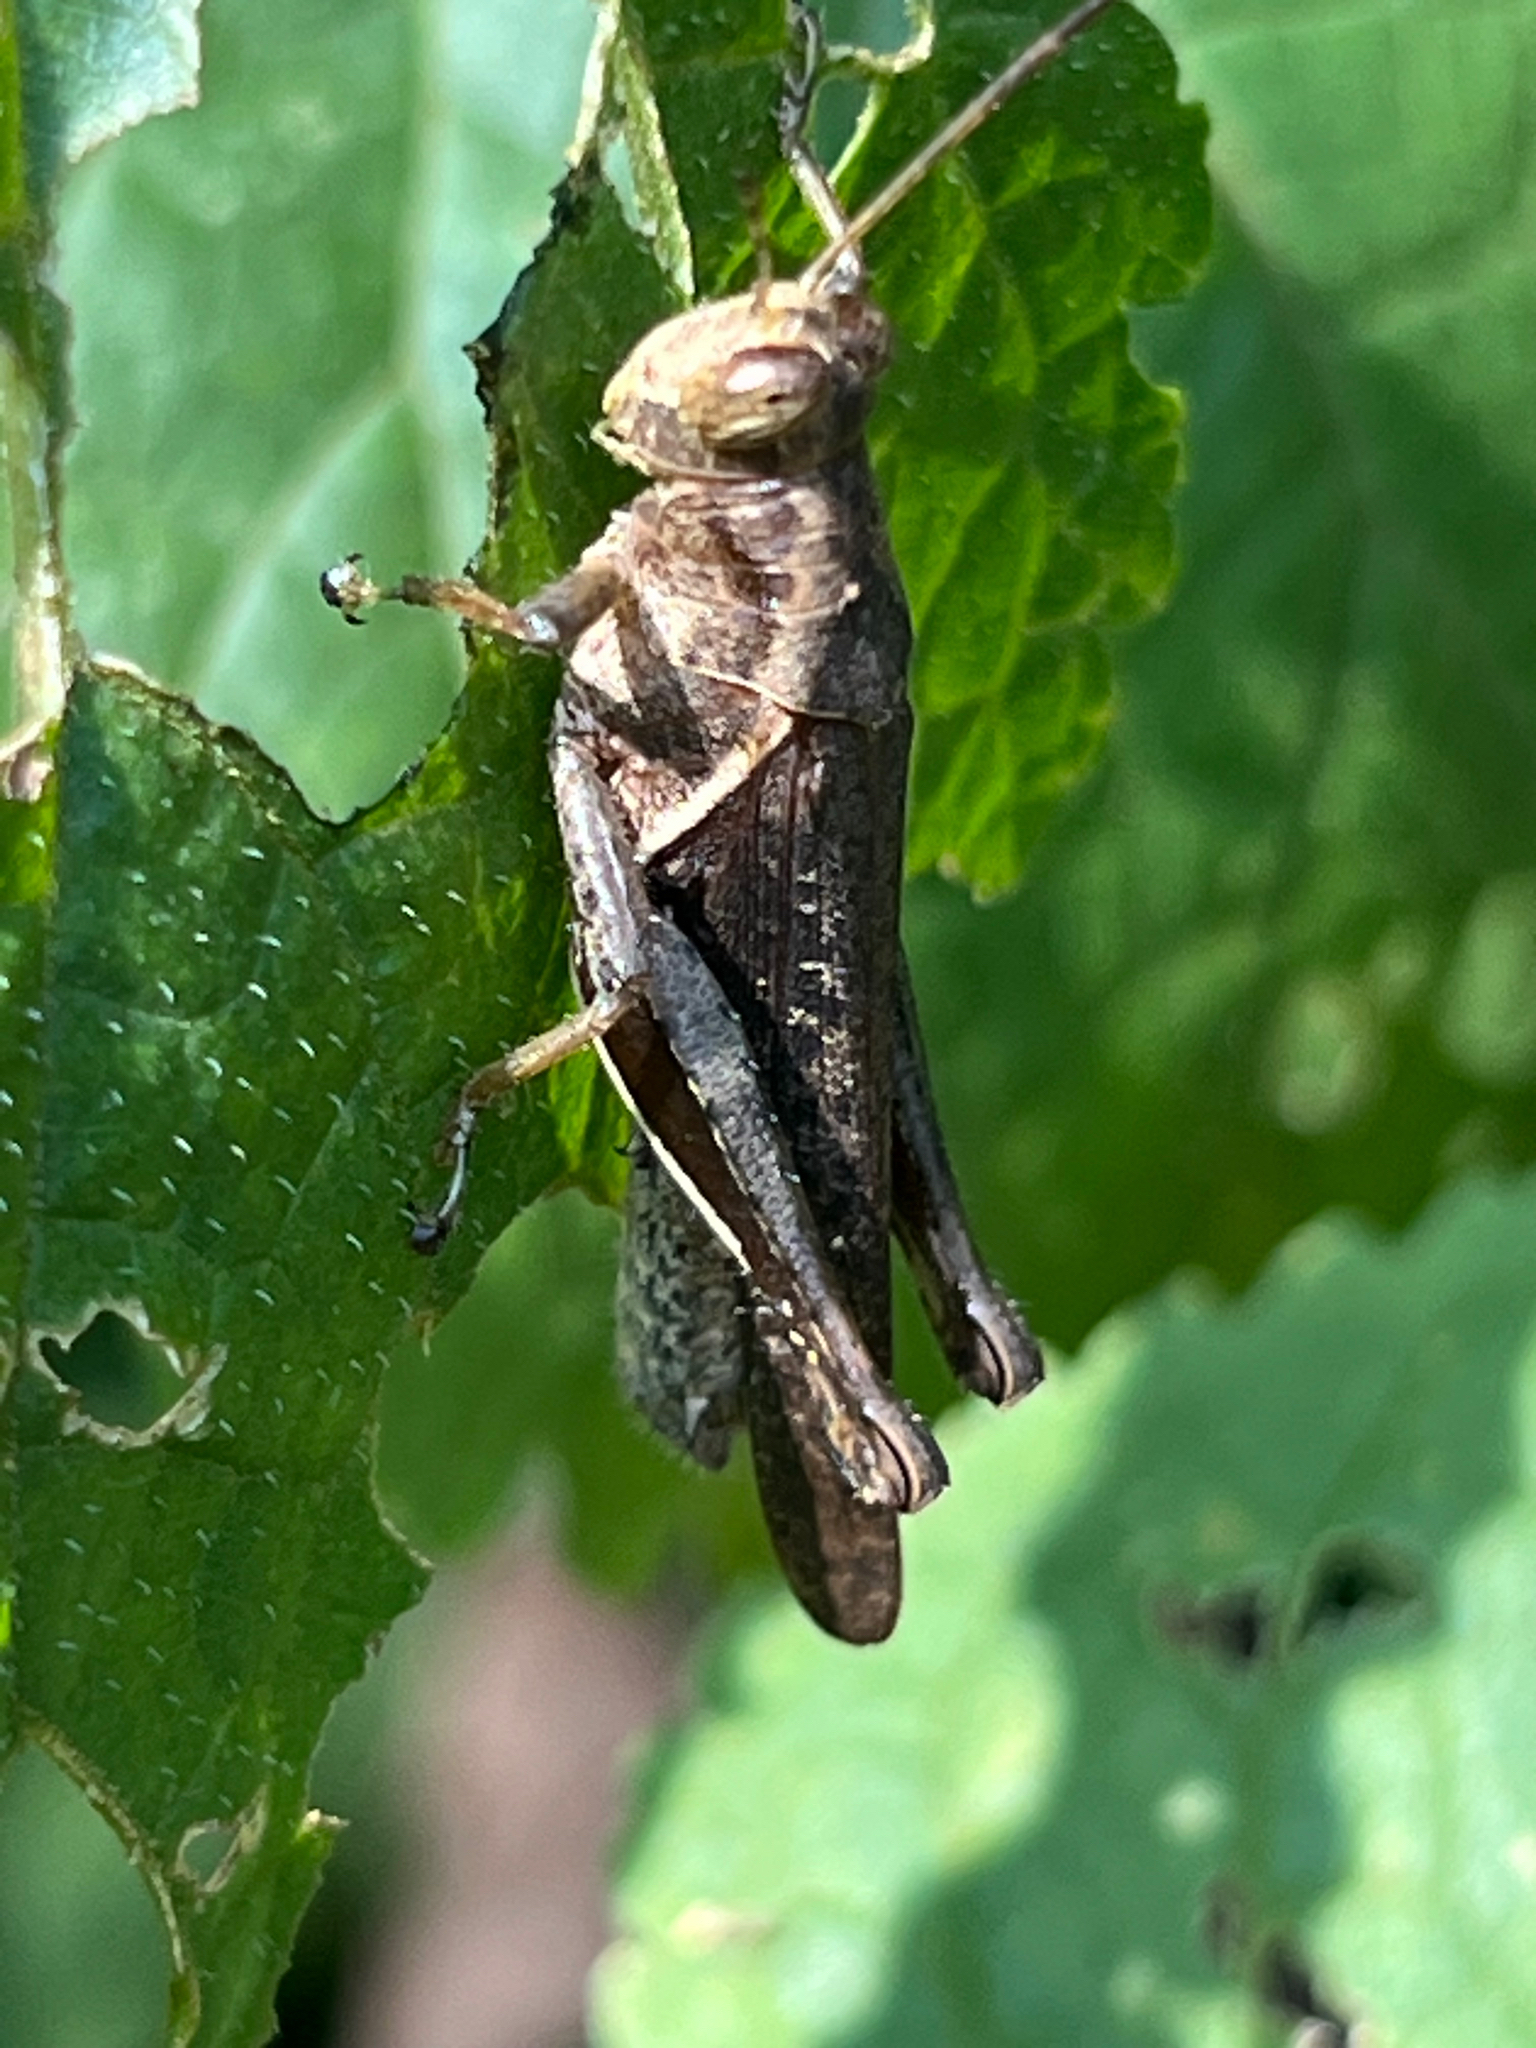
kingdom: Animalia
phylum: Arthropoda
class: Insecta
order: Orthoptera
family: Acrididae
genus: Abracris
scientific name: Abracris flavolineata
